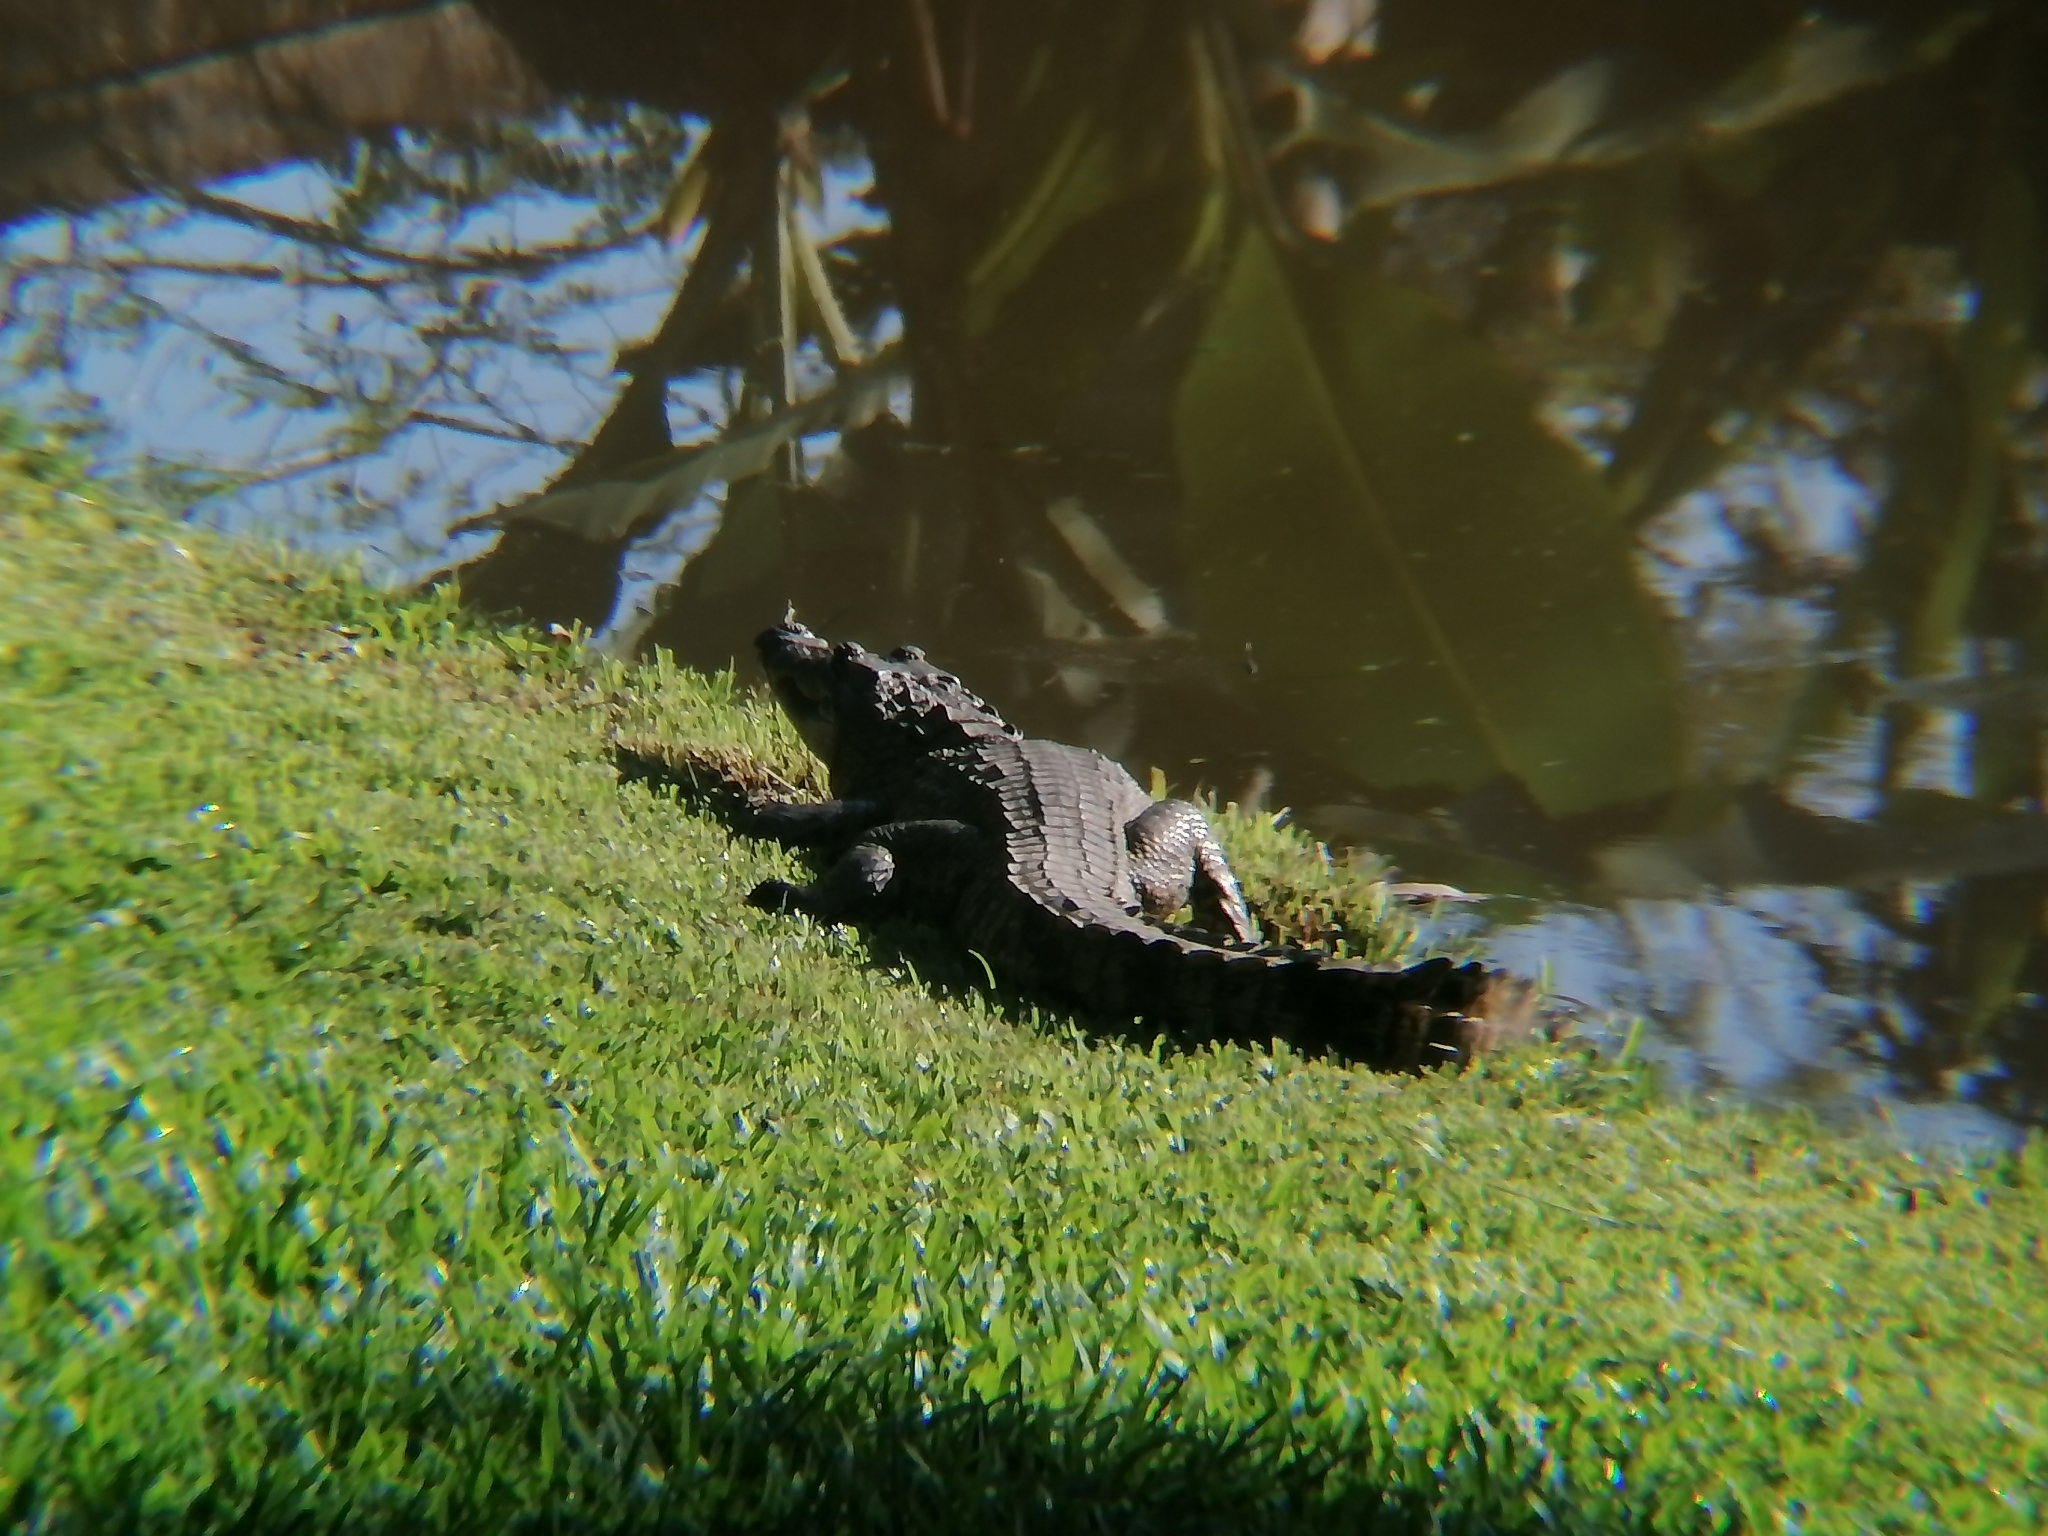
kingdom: Animalia
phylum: Chordata
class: Crocodylia
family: Crocodylidae
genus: Crocodylus
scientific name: Crocodylus moreletii
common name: Morelet's crocodile
